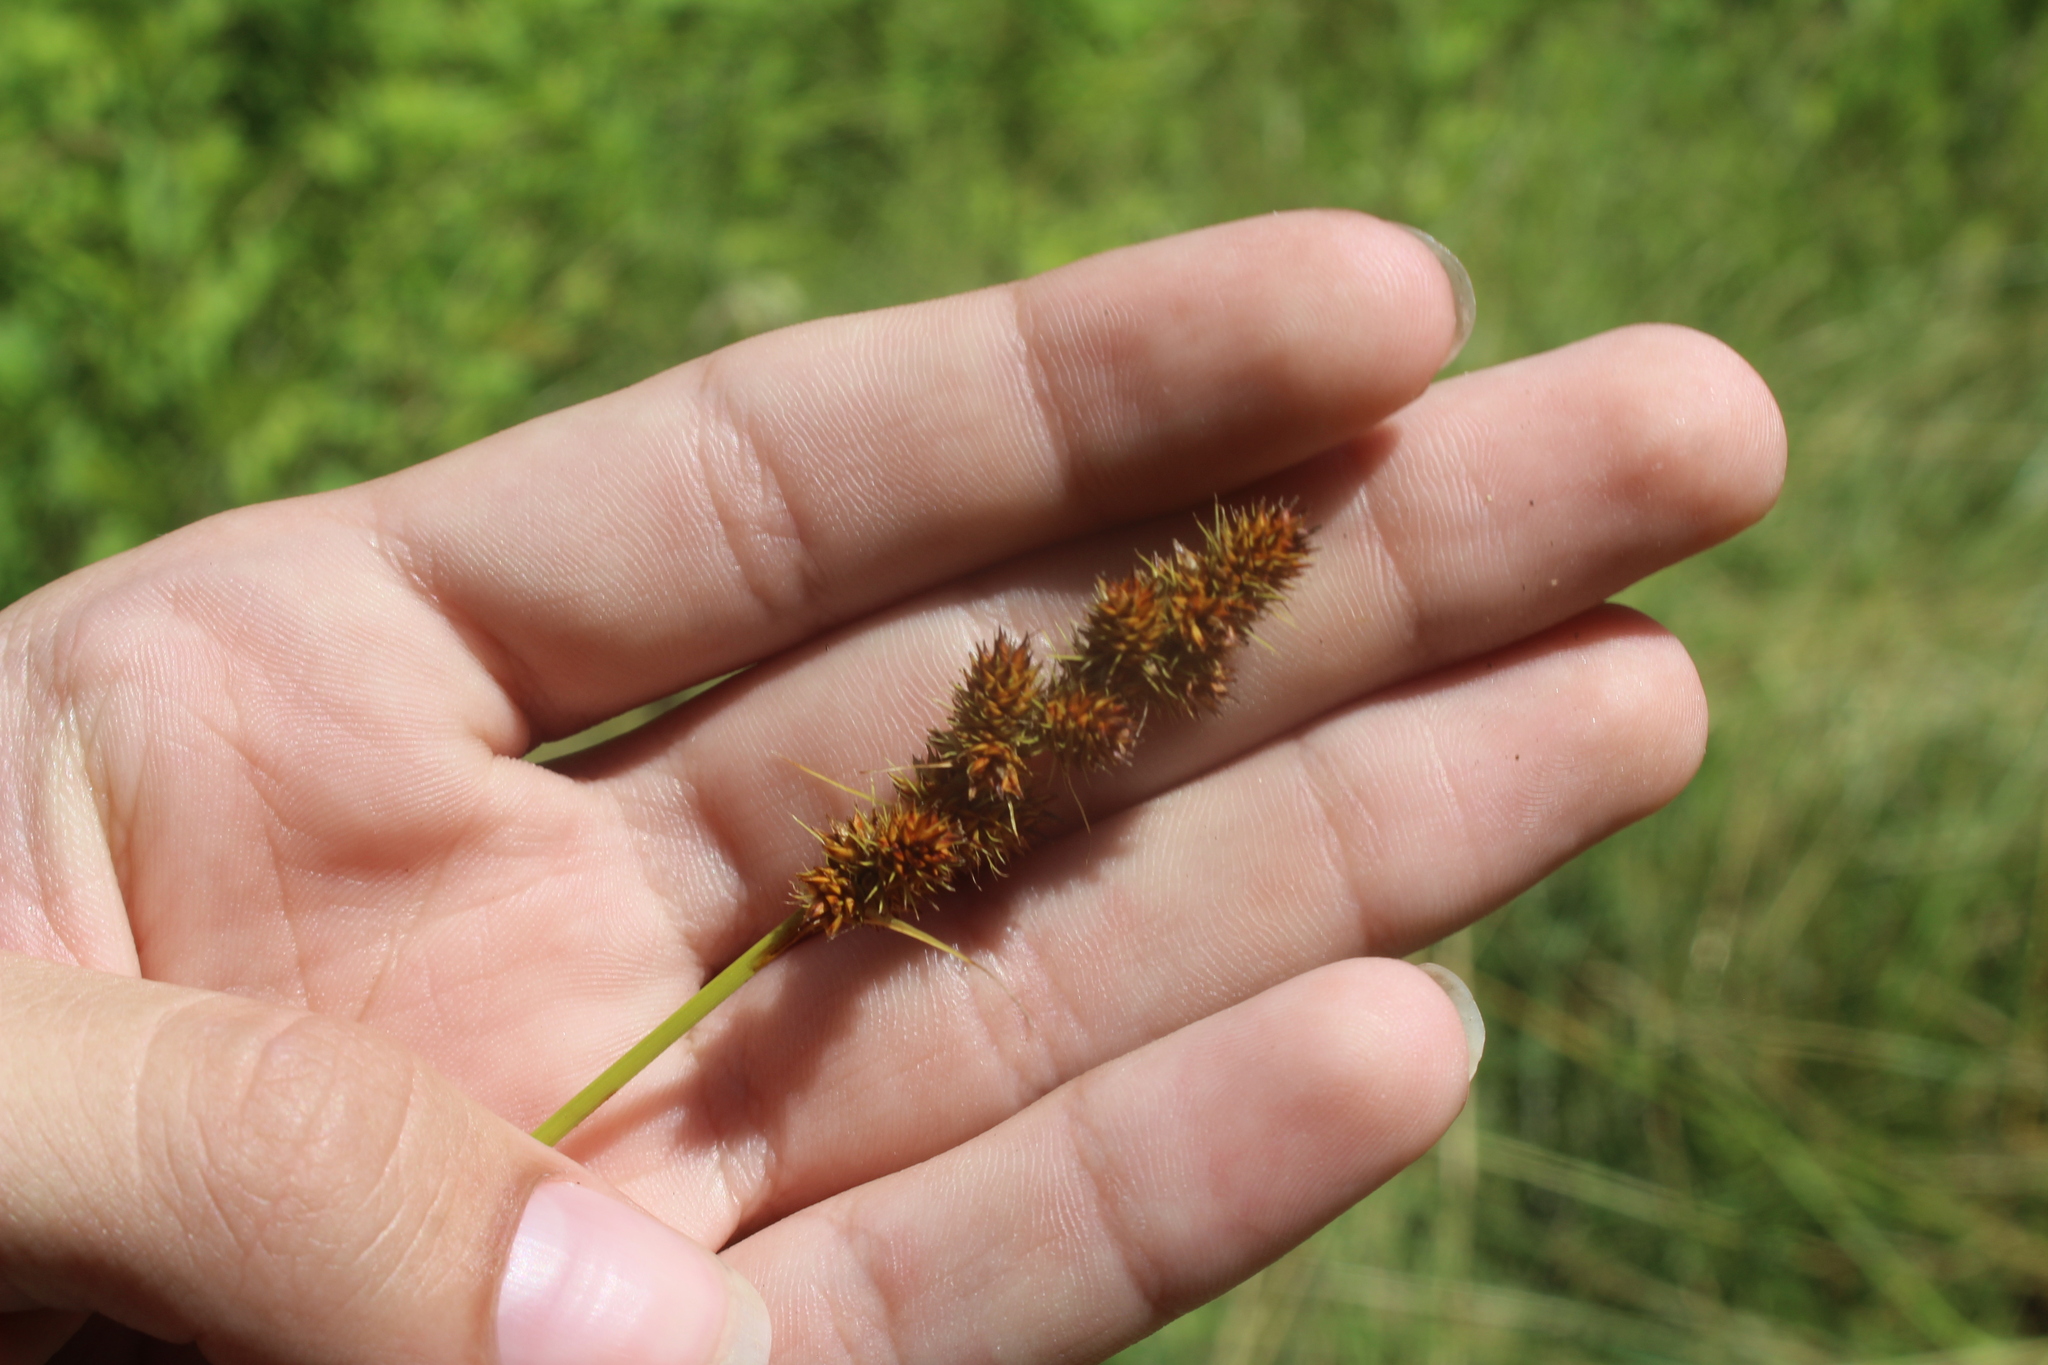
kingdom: Plantae
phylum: Tracheophyta
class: Liliopsida
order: Poales
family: Cyperaceae
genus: Carex
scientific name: Carex annectens
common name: Large fox sedge
